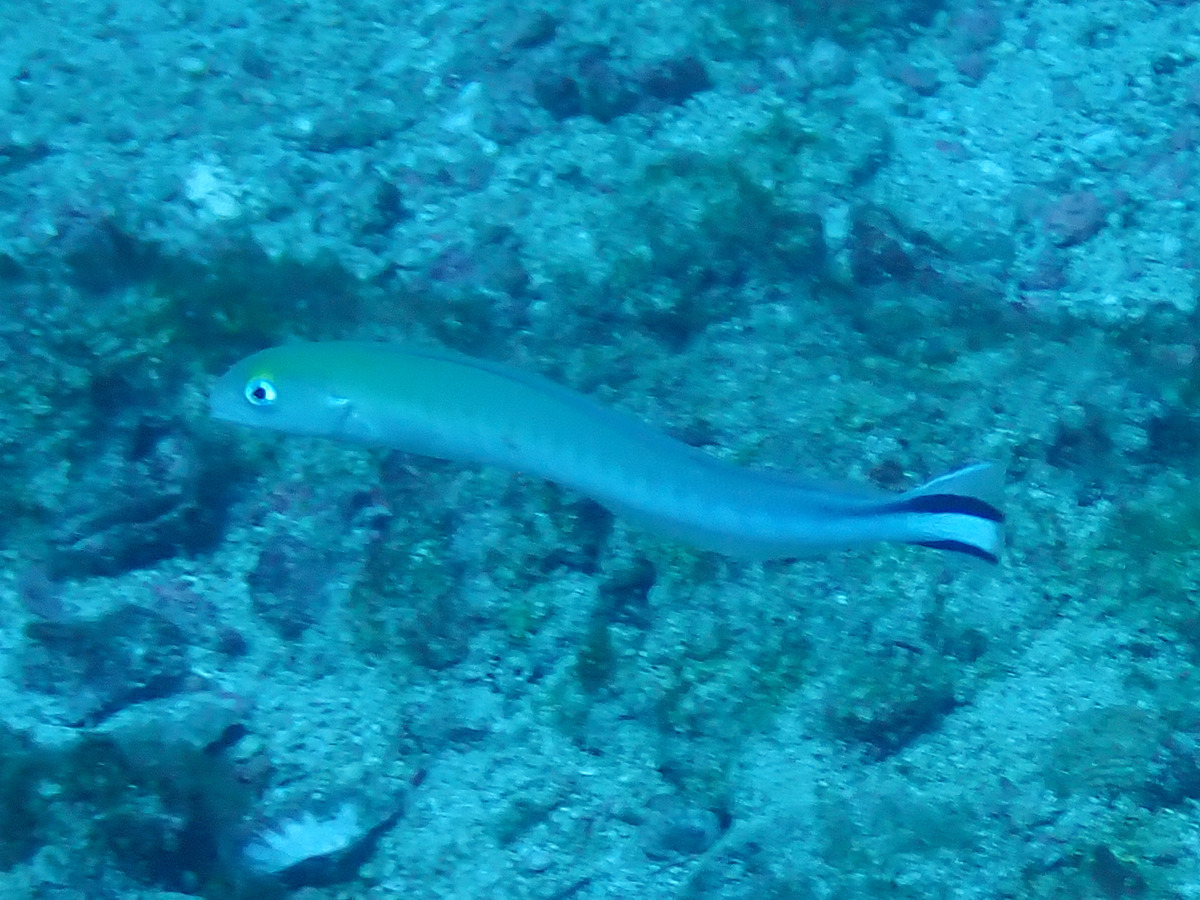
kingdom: Animalia
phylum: Chordata
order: Perciformes
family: Malacanthidae
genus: Malacanthus
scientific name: Malacanthus brevirostris
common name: Flagtail blanquillo
